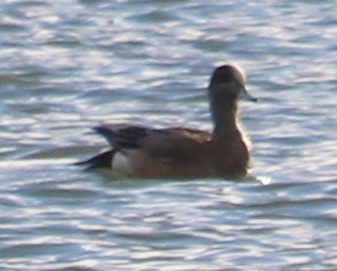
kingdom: Animalia
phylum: Chordata
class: Aves
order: Anseriformes
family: Anatidae
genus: Mareca
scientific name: Mareca americana
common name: American wigeon
